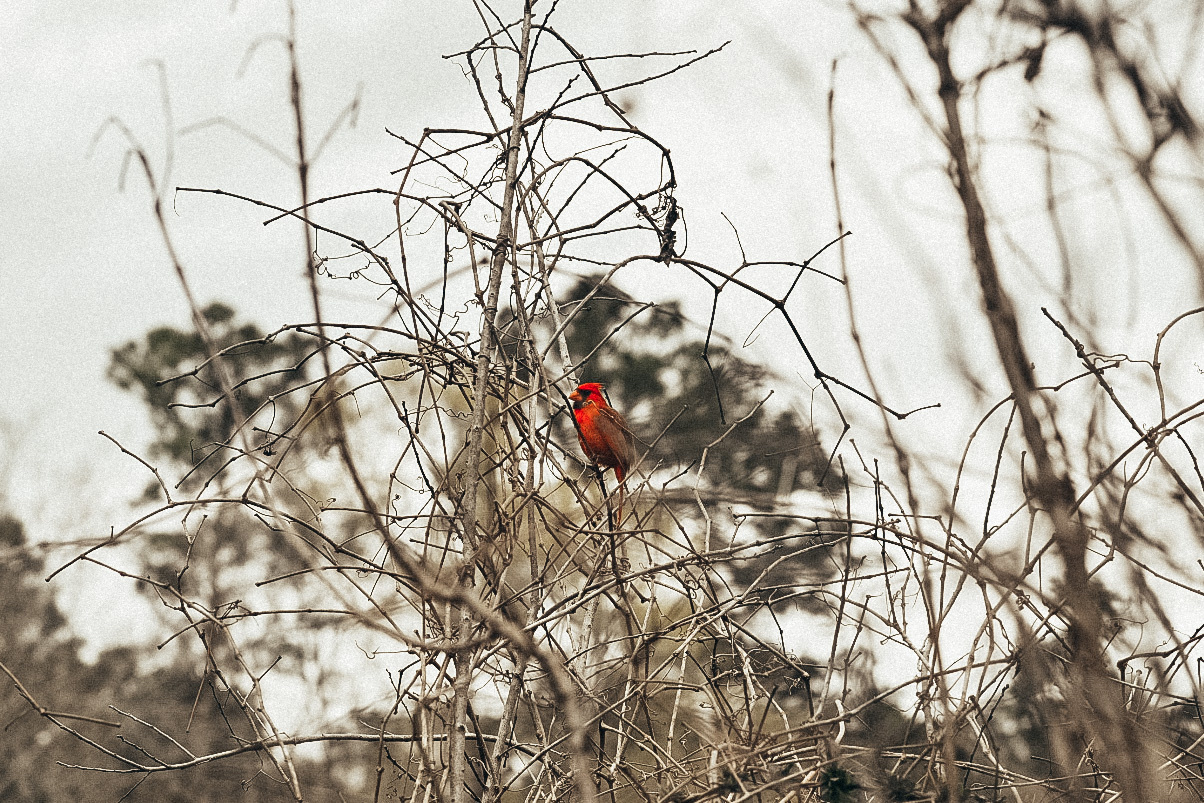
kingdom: Animalia
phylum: Chordata
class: Aves
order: Passeriformes
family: Cardinalidae
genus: Cardinalis
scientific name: Cardinalis cardinalis
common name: Northern cardinal
